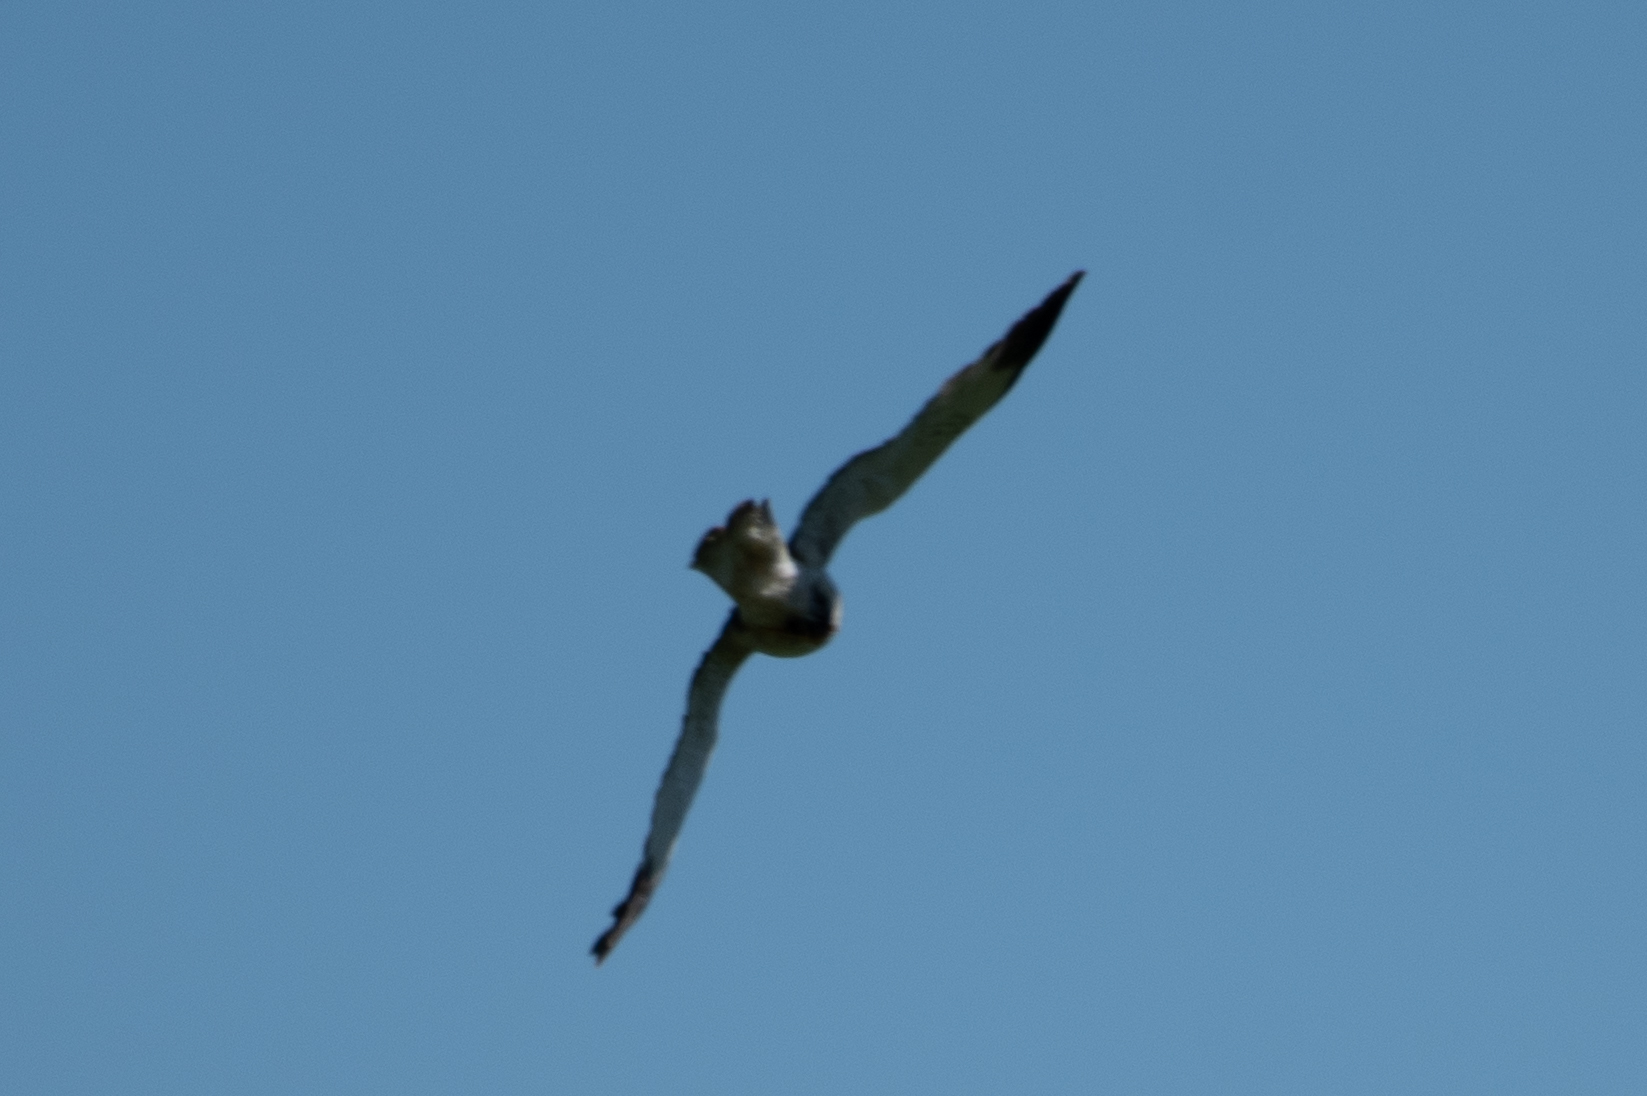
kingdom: Animalia
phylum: Chordata
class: Aves
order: Accipitriformes
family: Accipitridae
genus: Circus
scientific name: Circus cyaneus
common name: Hen harrier
